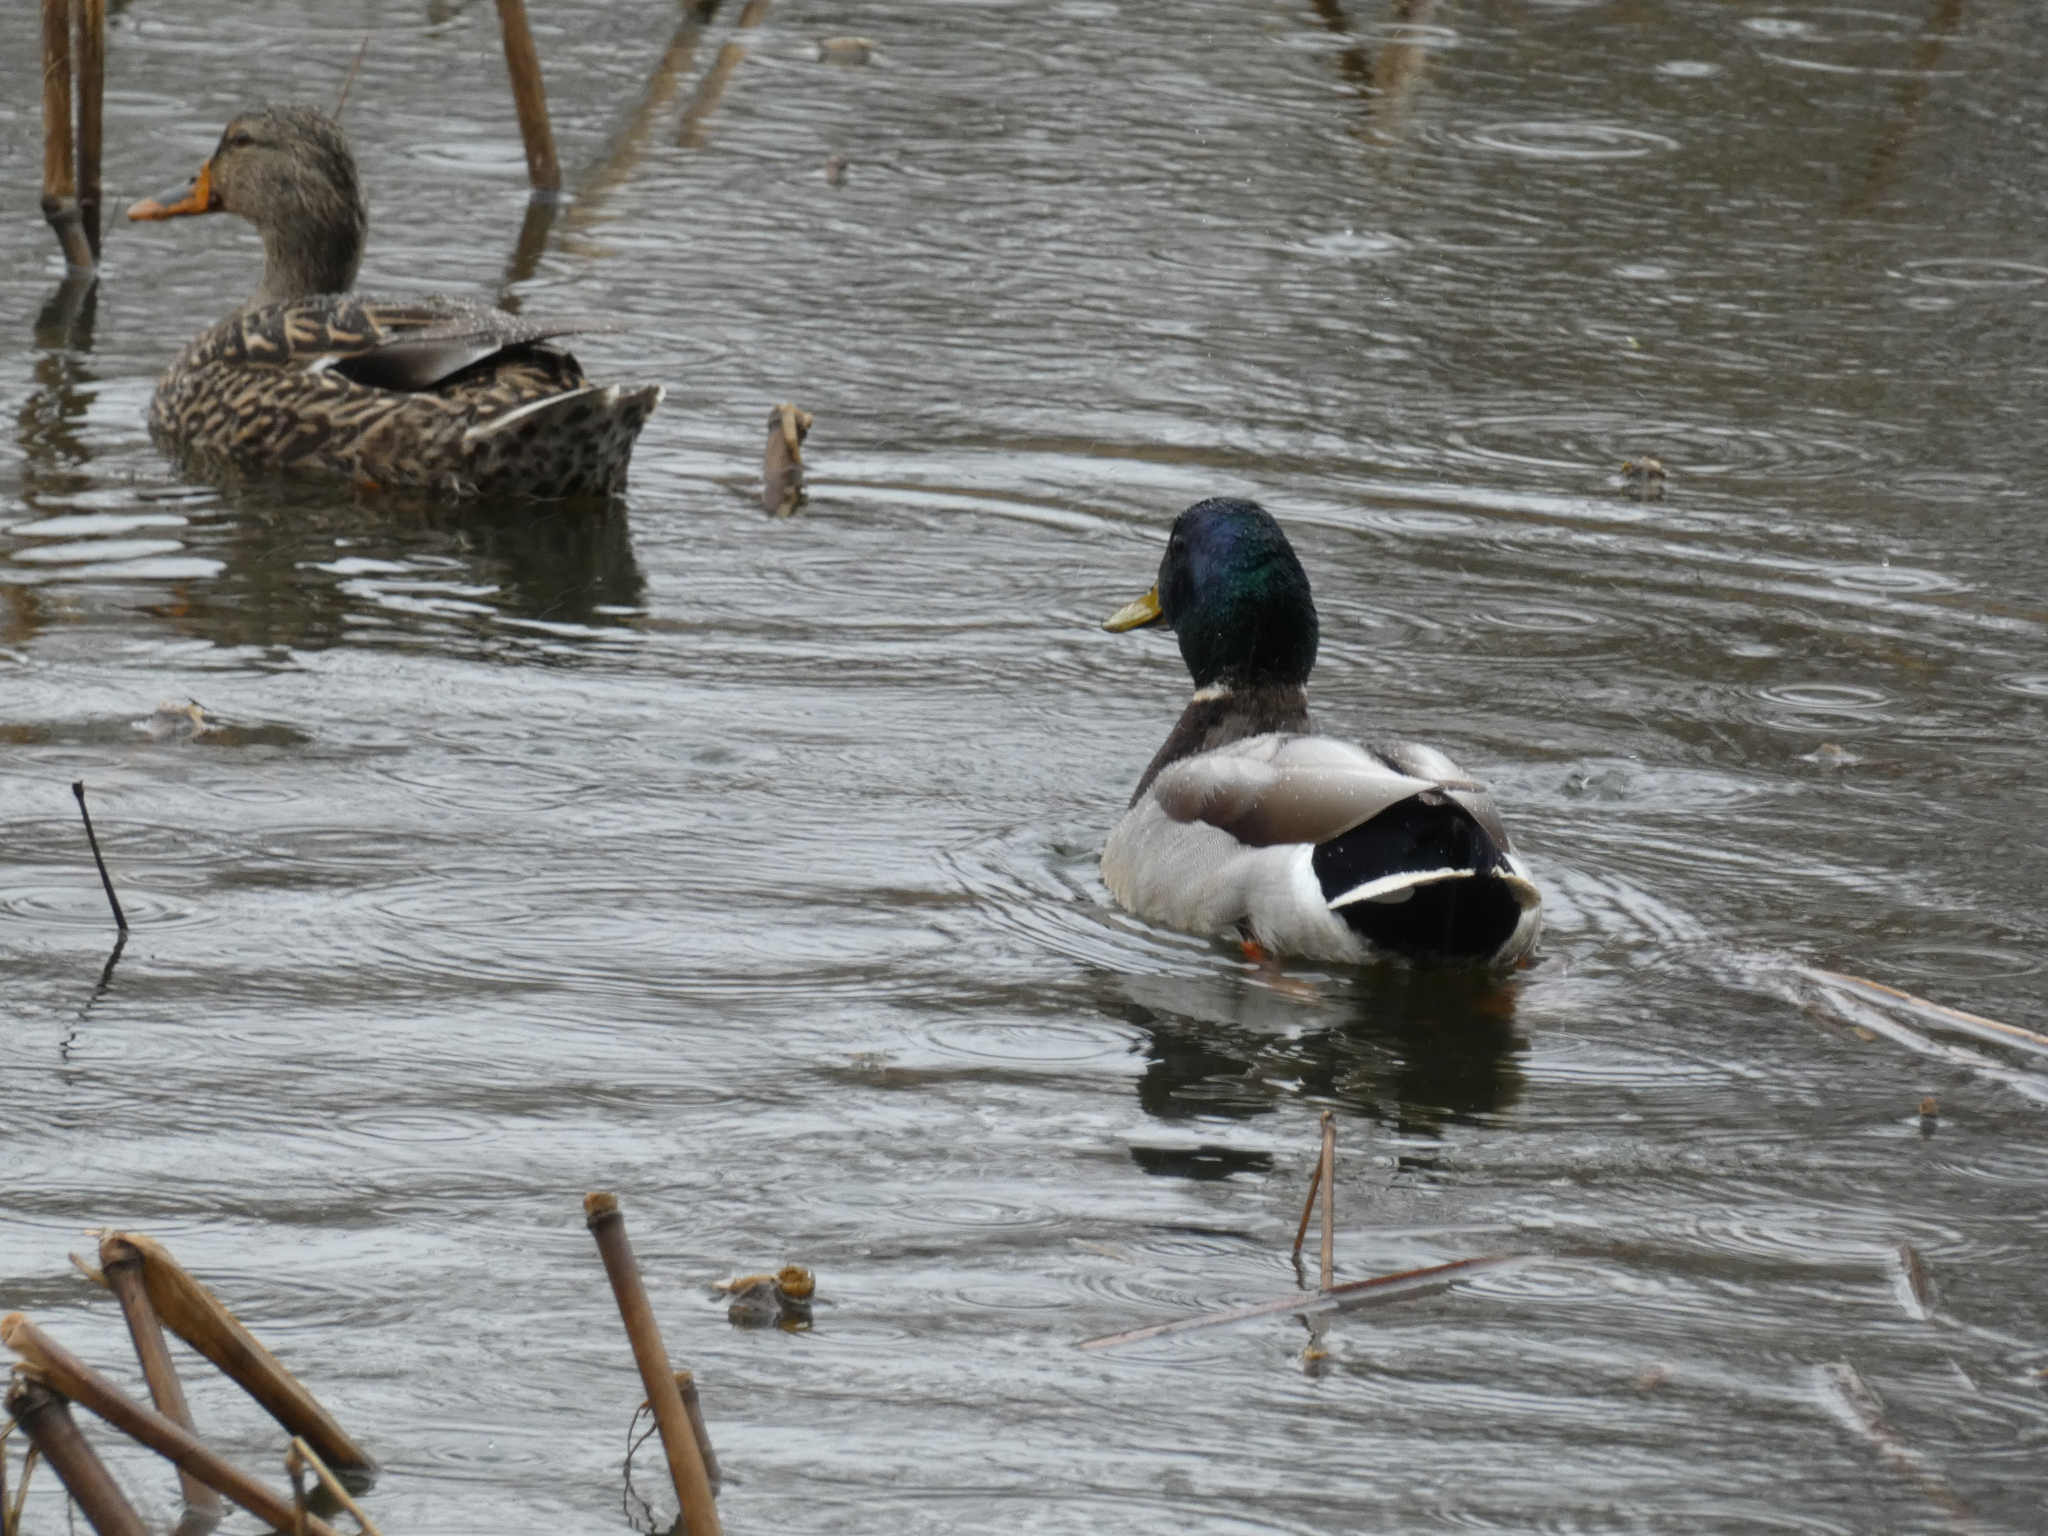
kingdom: Animalia
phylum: Chordata
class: Aves
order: Anseriformes
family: Anatidae
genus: Anas
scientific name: Anas platyrhynchos
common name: Mallard
